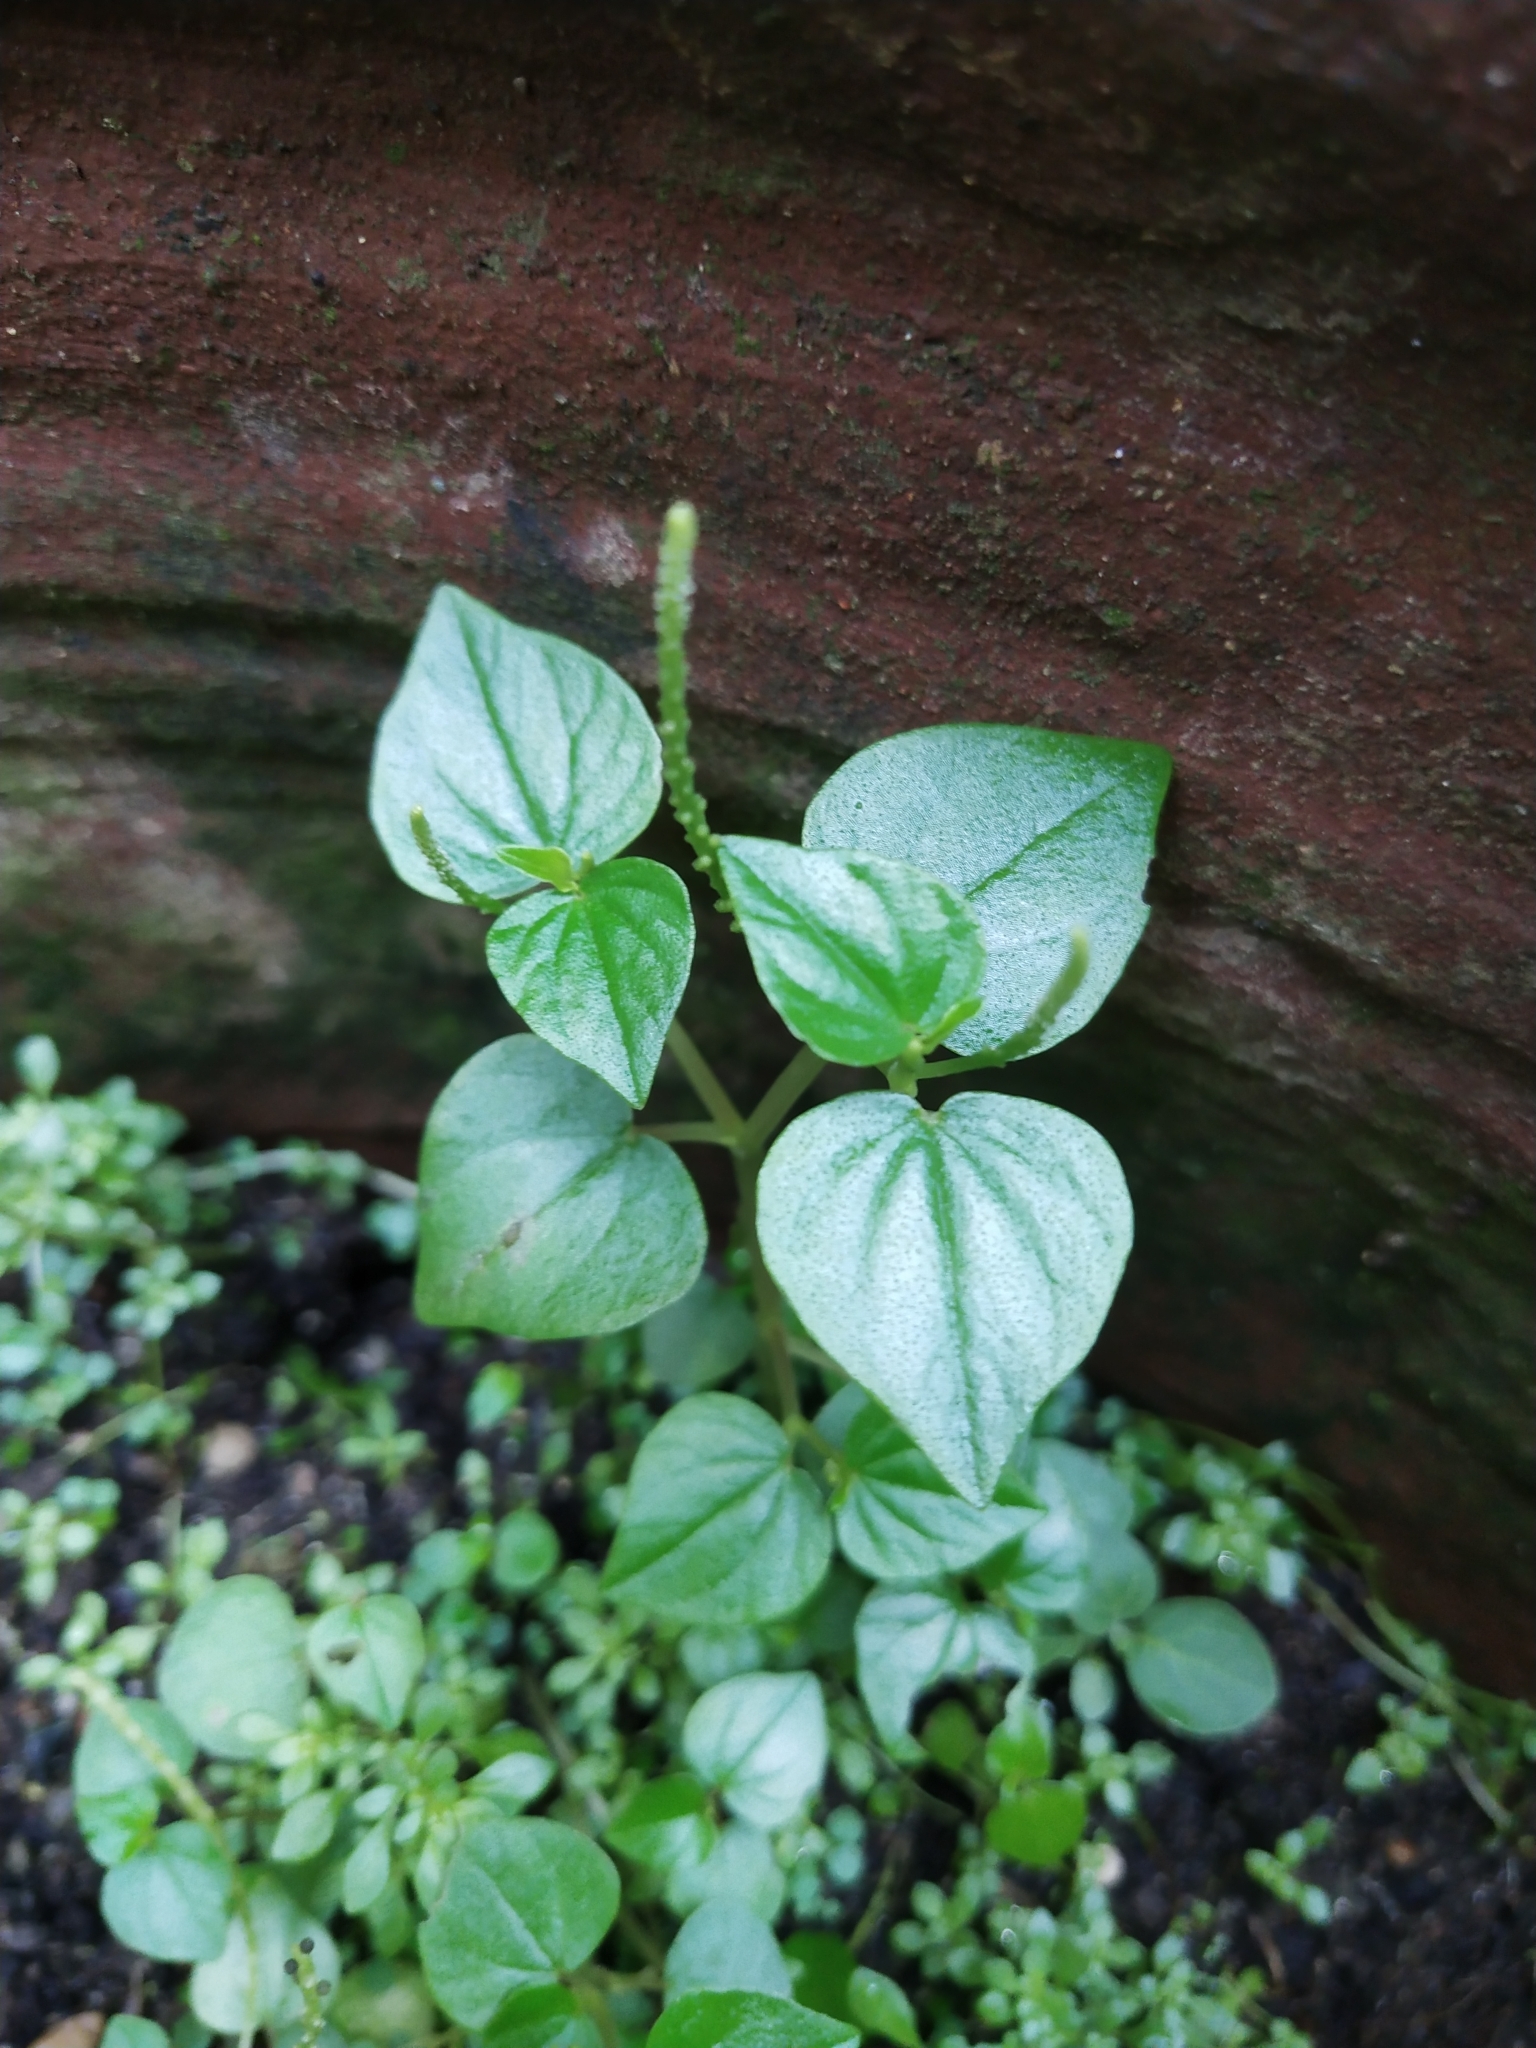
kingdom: Plantae
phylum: Tracheophyta
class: Magnoliopsida
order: Piperales
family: Piperaceae
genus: Peperomia
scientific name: Peperomia pellucida
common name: Man to man
